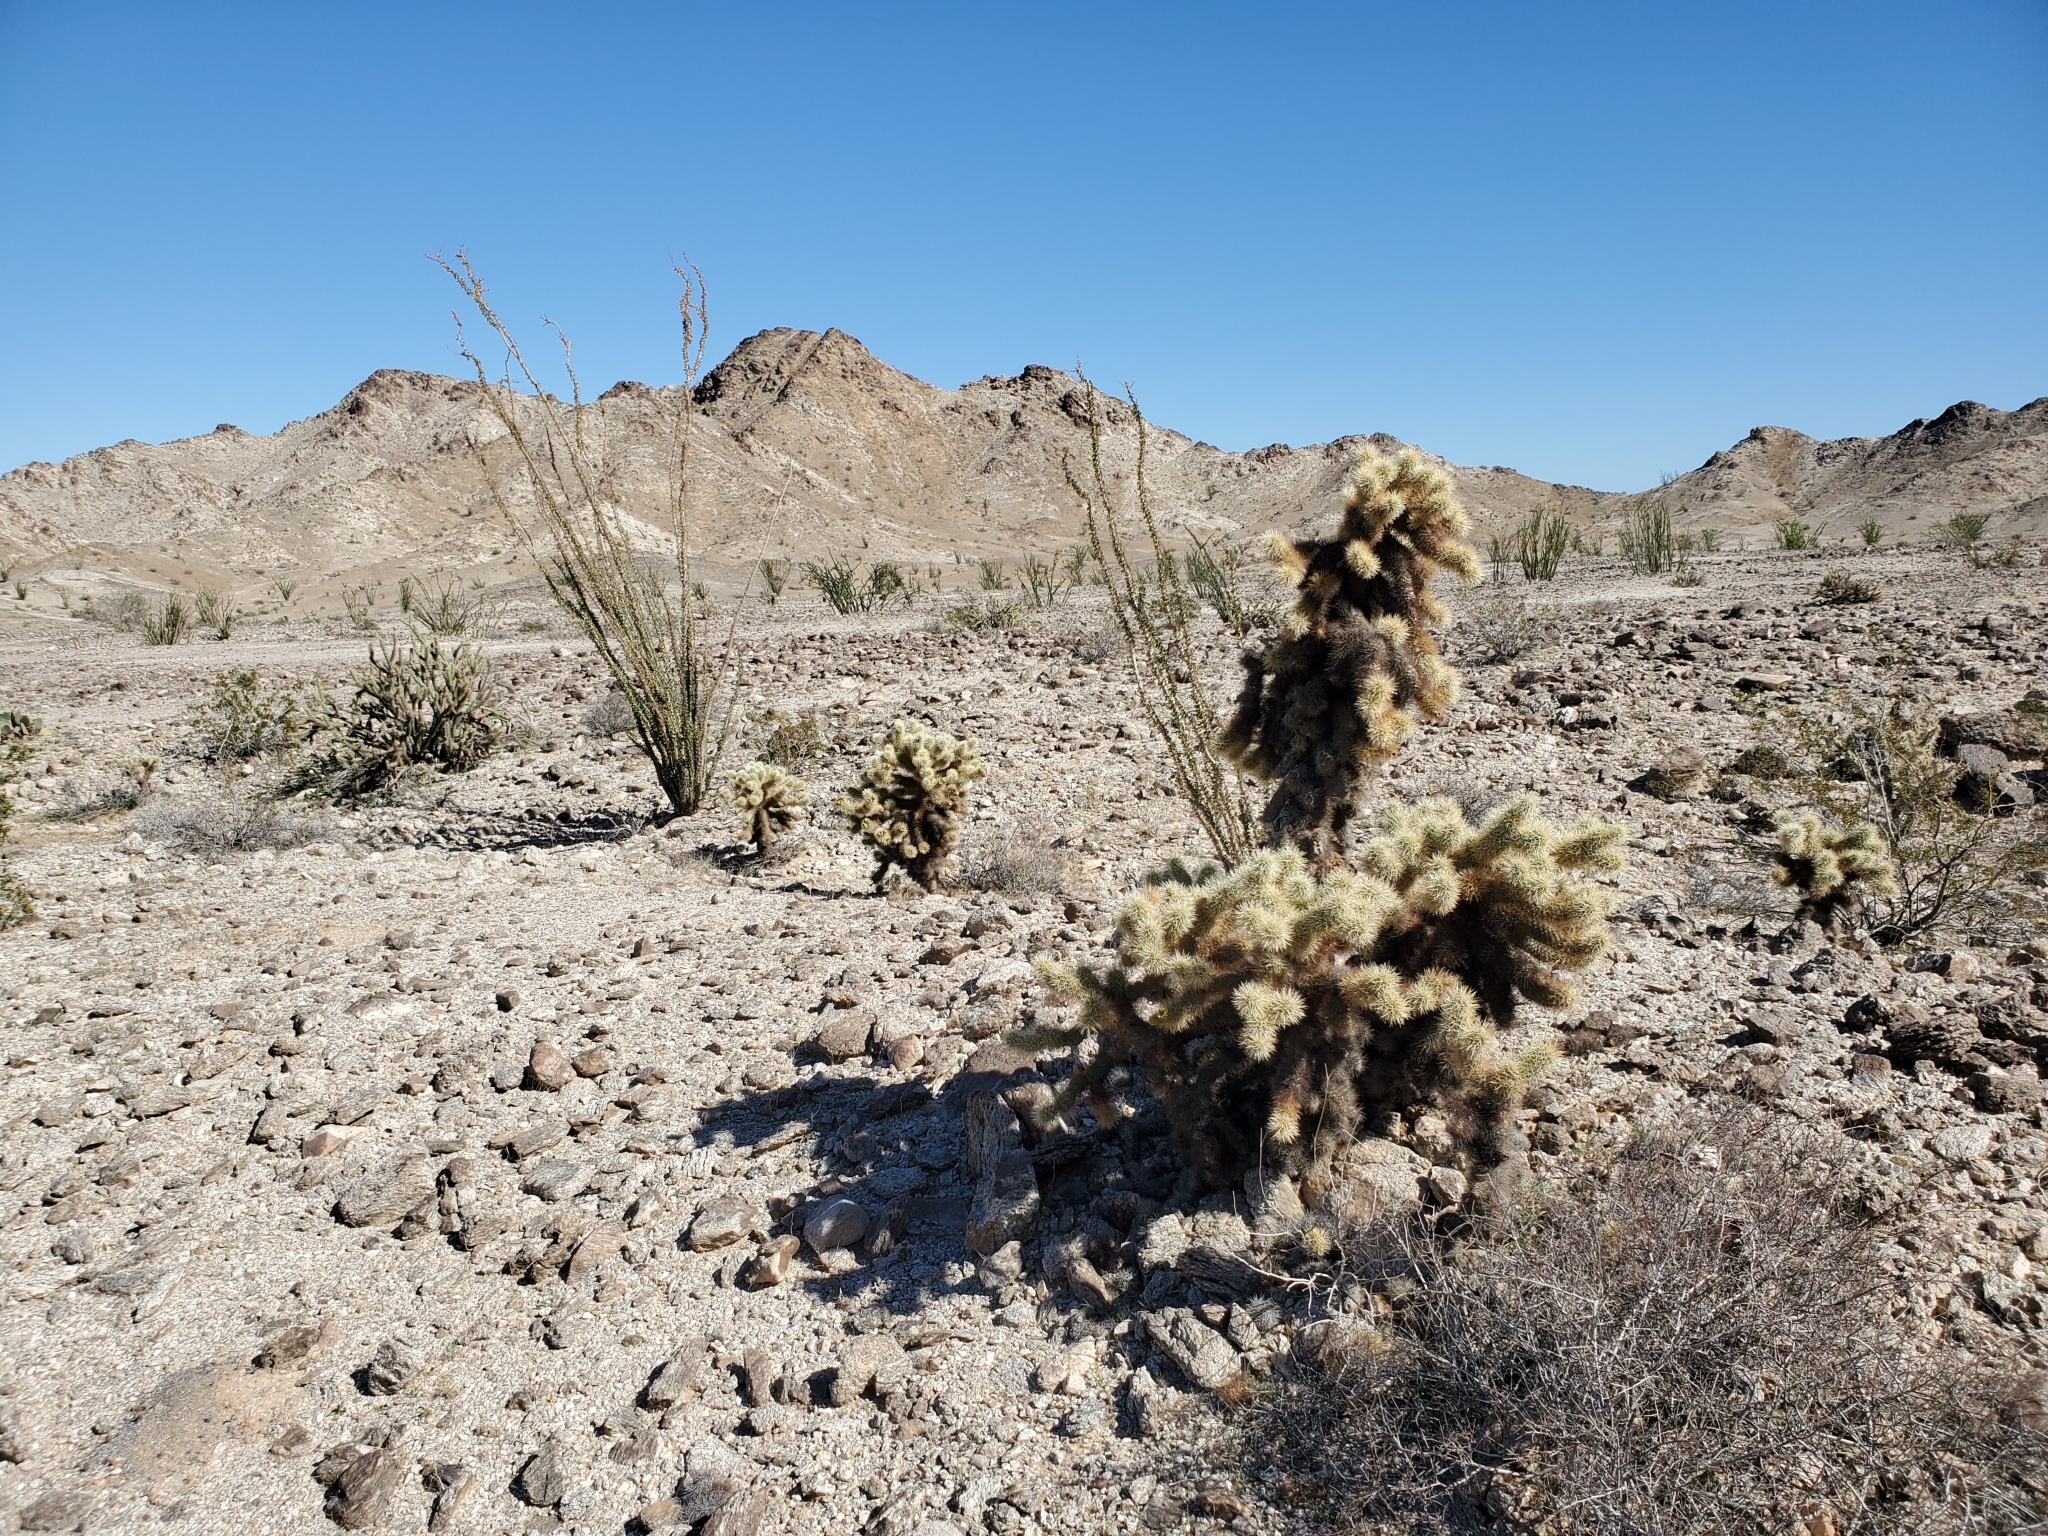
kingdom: Plantae
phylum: Tracheophyta
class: Magnoliopsida
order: Caryophyllales
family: Cactaceae
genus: Cylindropuntia
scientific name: Cylindropuntia fosbergii
